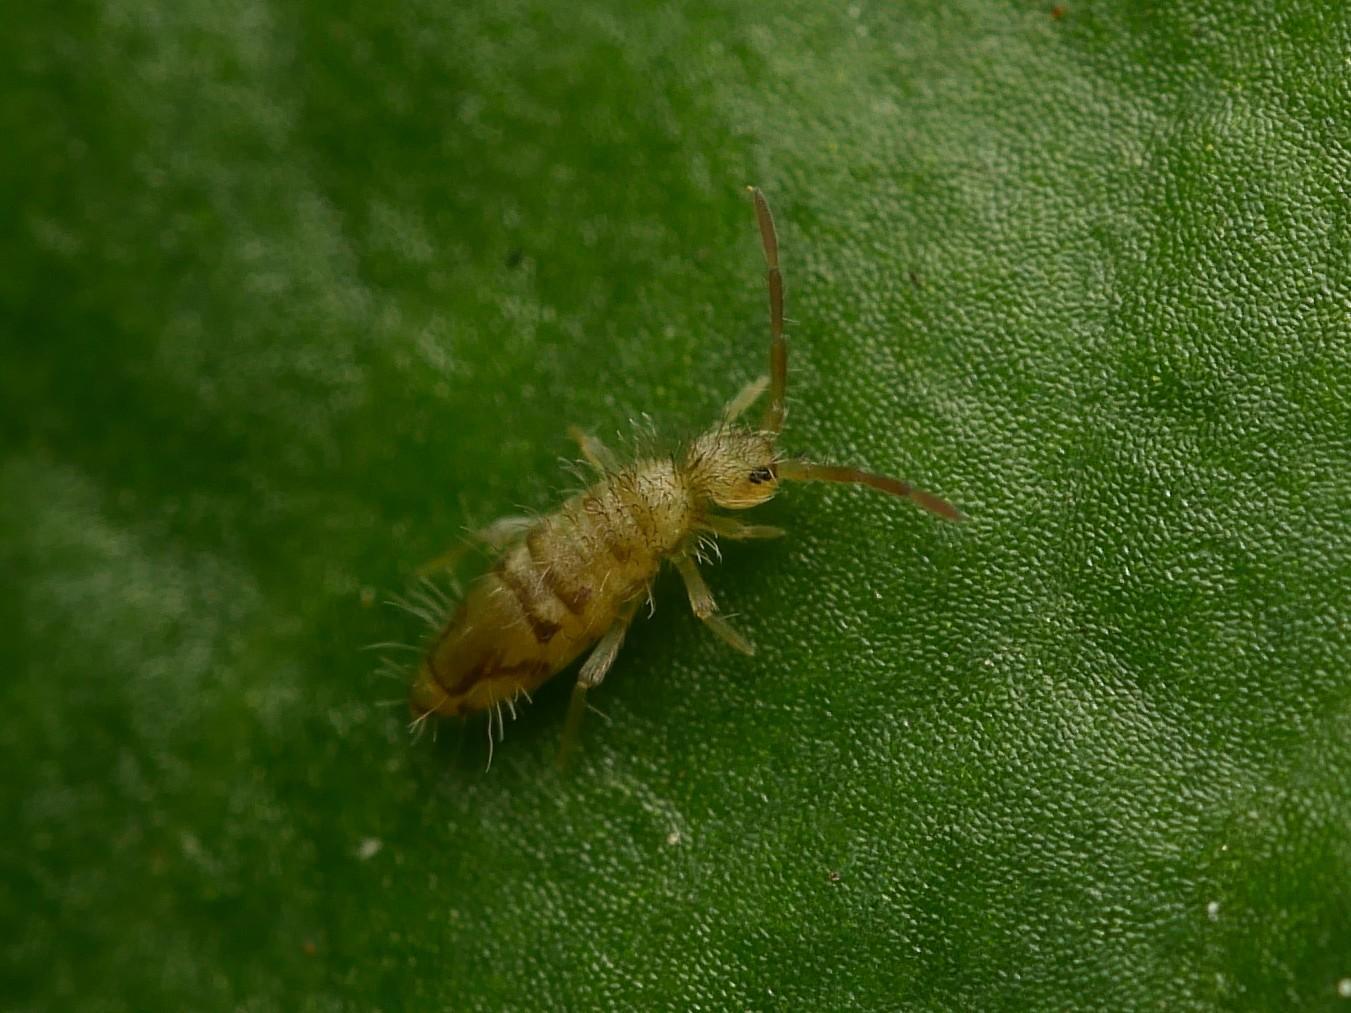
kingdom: Animalia
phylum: Arthropoda
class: Collembola
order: Entomobryomorpha
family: Entomobryidae
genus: Entomobrya
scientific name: Entomobrya nivalis
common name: Cosmopolitan springtail
